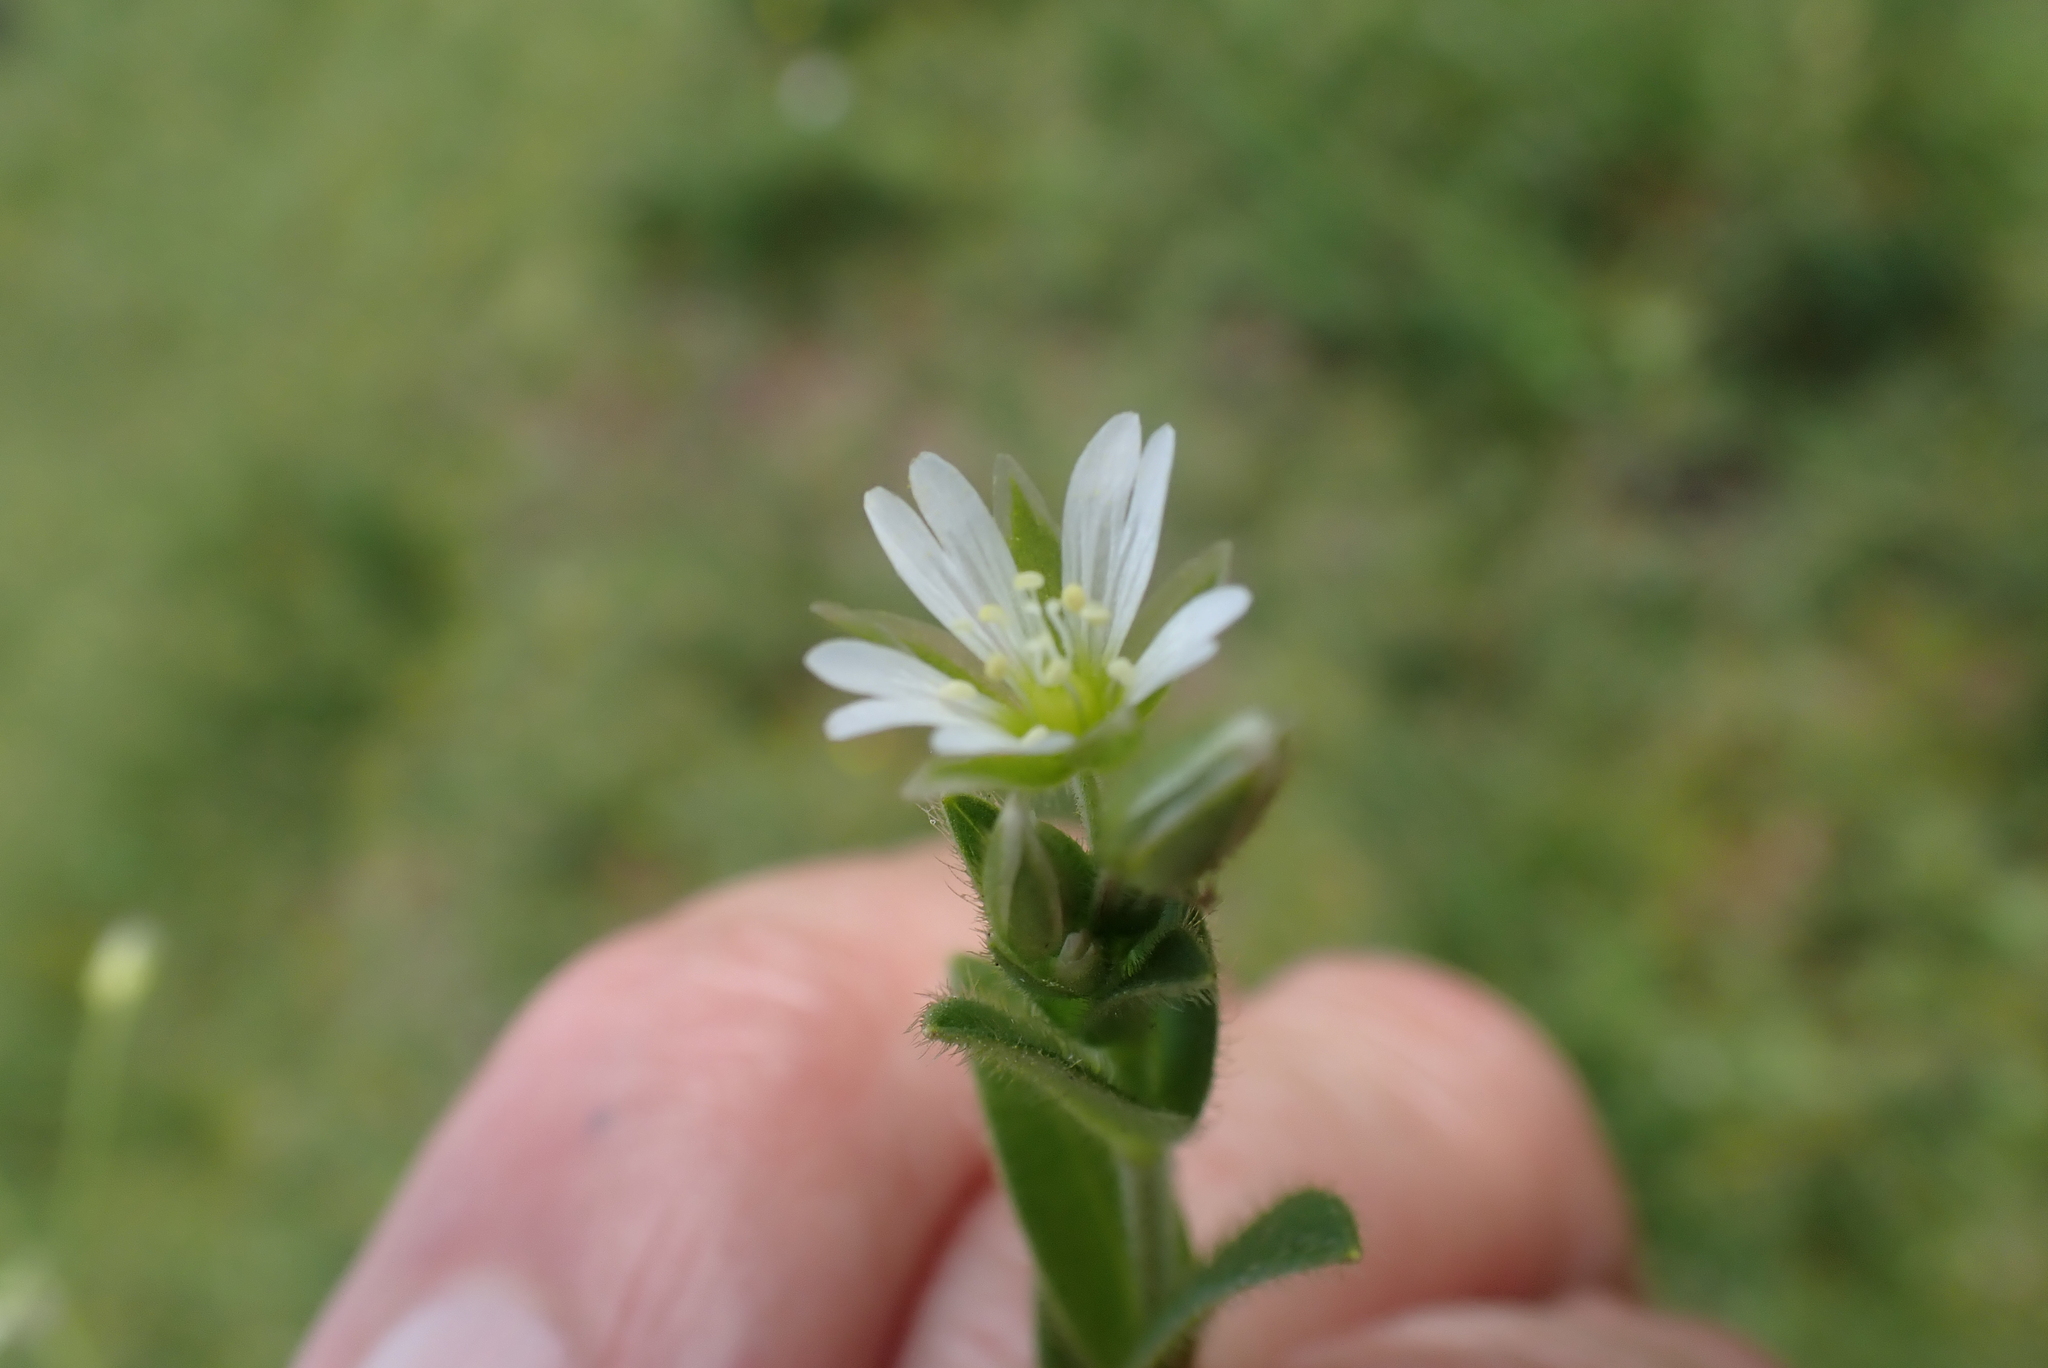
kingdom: Plantae
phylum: Tracheophyta
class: Magnoliopsida
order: Caryophyllales
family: Caryophyllaceae
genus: Cerastium
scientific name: Cerastium fontanum
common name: Common mouse-ear
